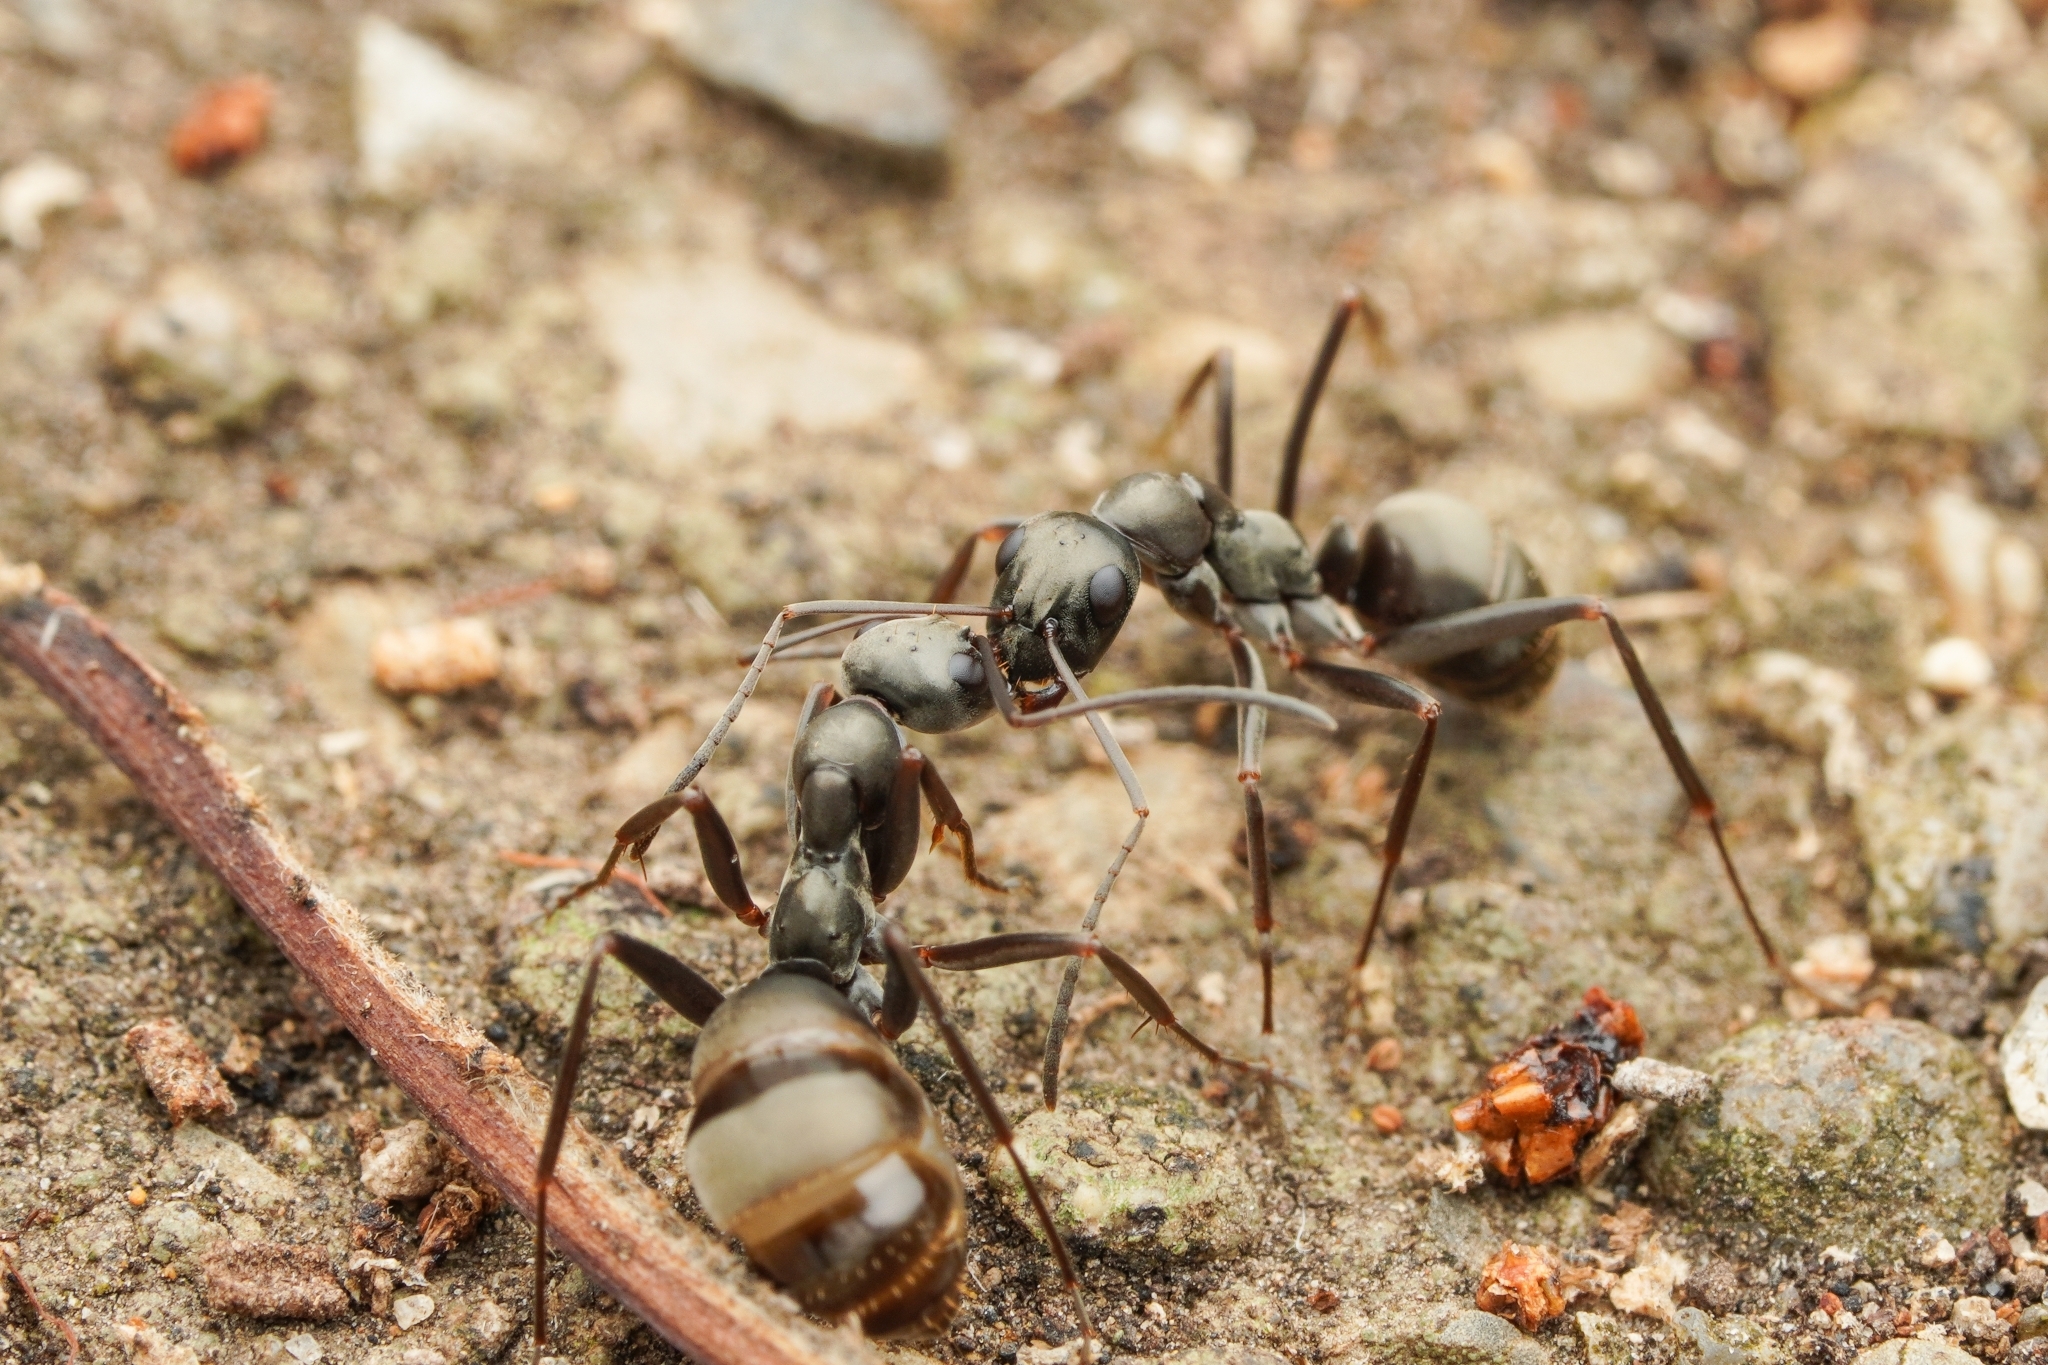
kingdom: Animalia
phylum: Arthropoda
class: Insecta
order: Hymenoptera
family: Formicidae
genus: Formica
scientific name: Formica hayashi
